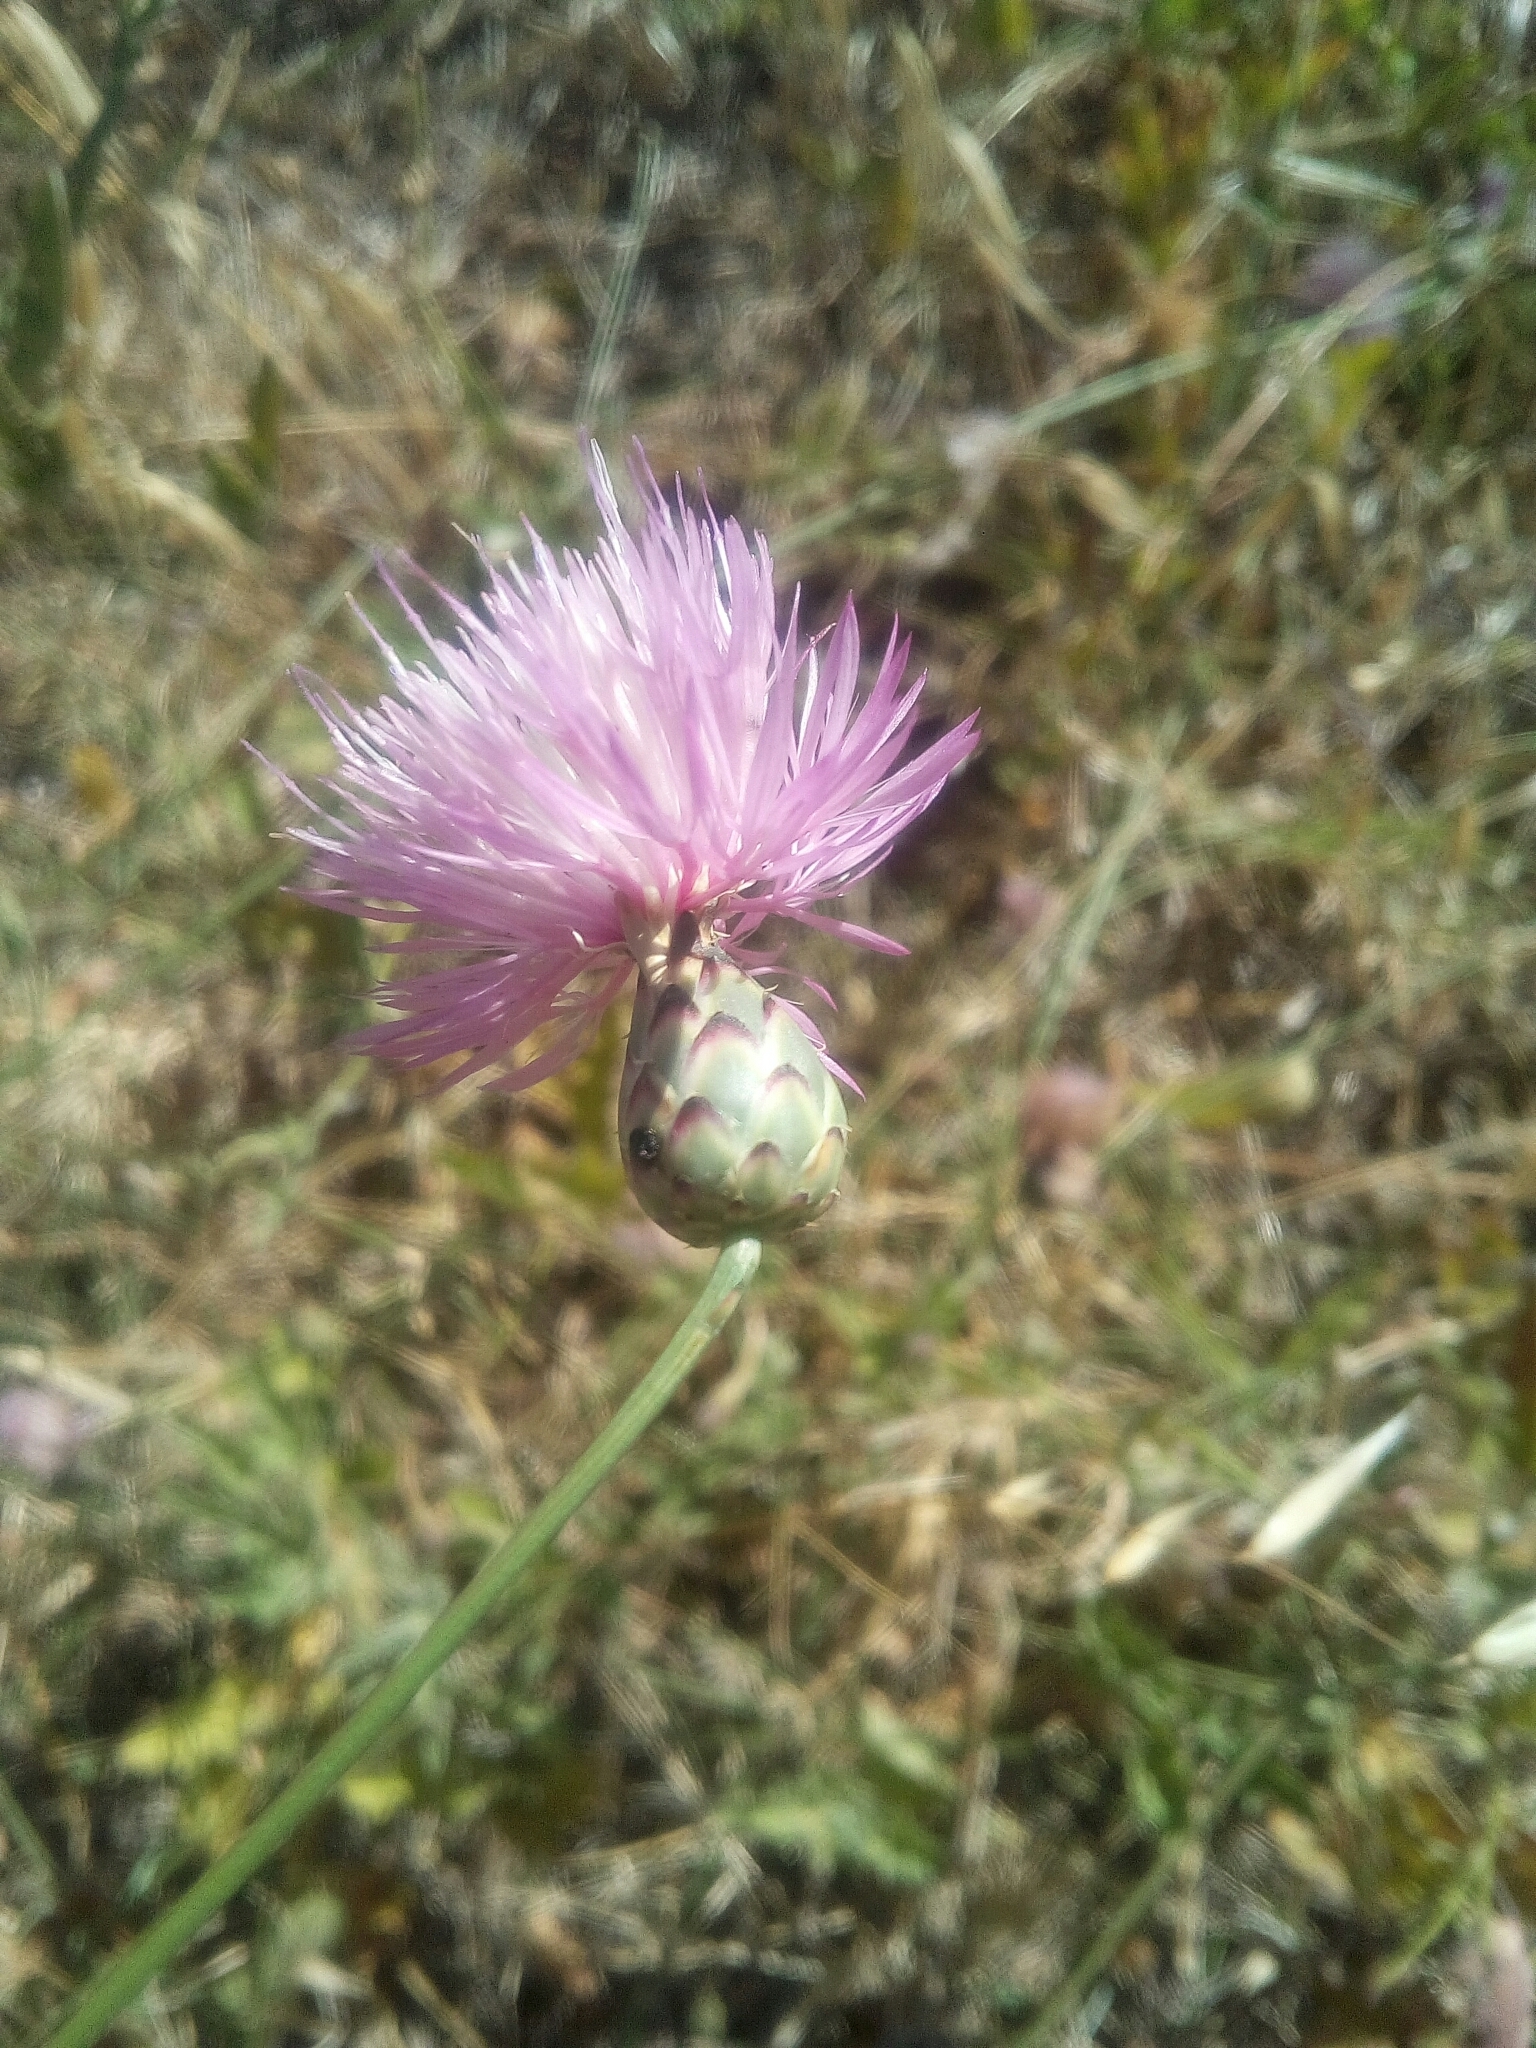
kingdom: Plantae
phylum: Tracheophyta
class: Magnoliopsida
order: Asterales
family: Asteraceae
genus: Mantisalca
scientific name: Mantisalca salmantica
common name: Dagger flower
